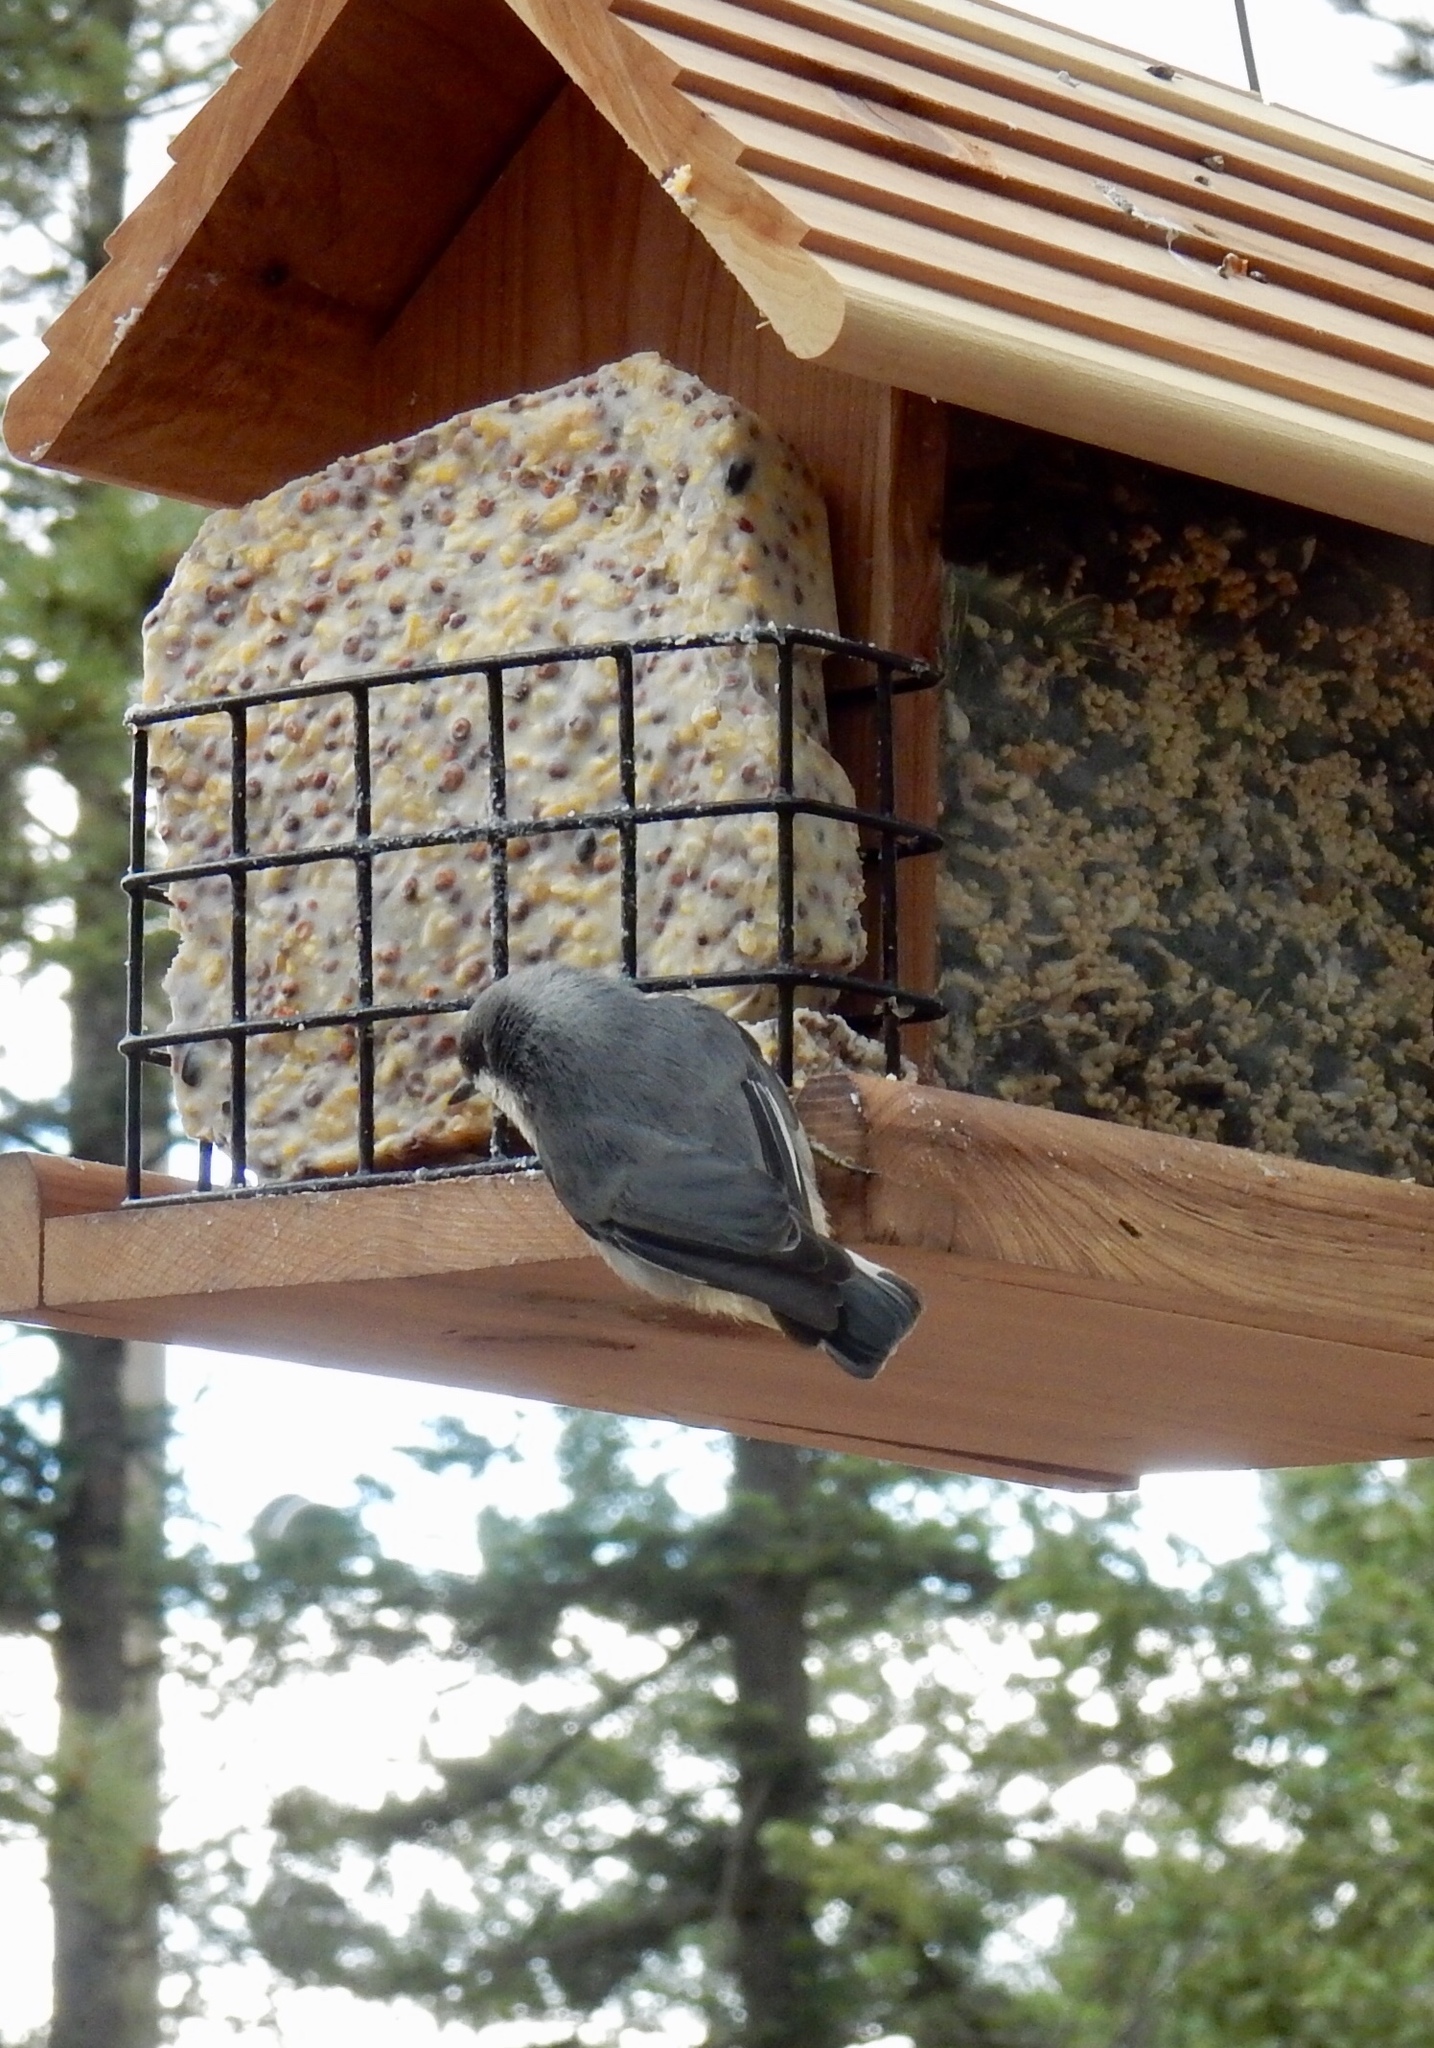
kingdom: Animalia
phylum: Chordata
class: Aves
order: Passeriformes
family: Sittidae
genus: Sitta
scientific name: Sitta pygmaea
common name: Pygmy nuthatch
